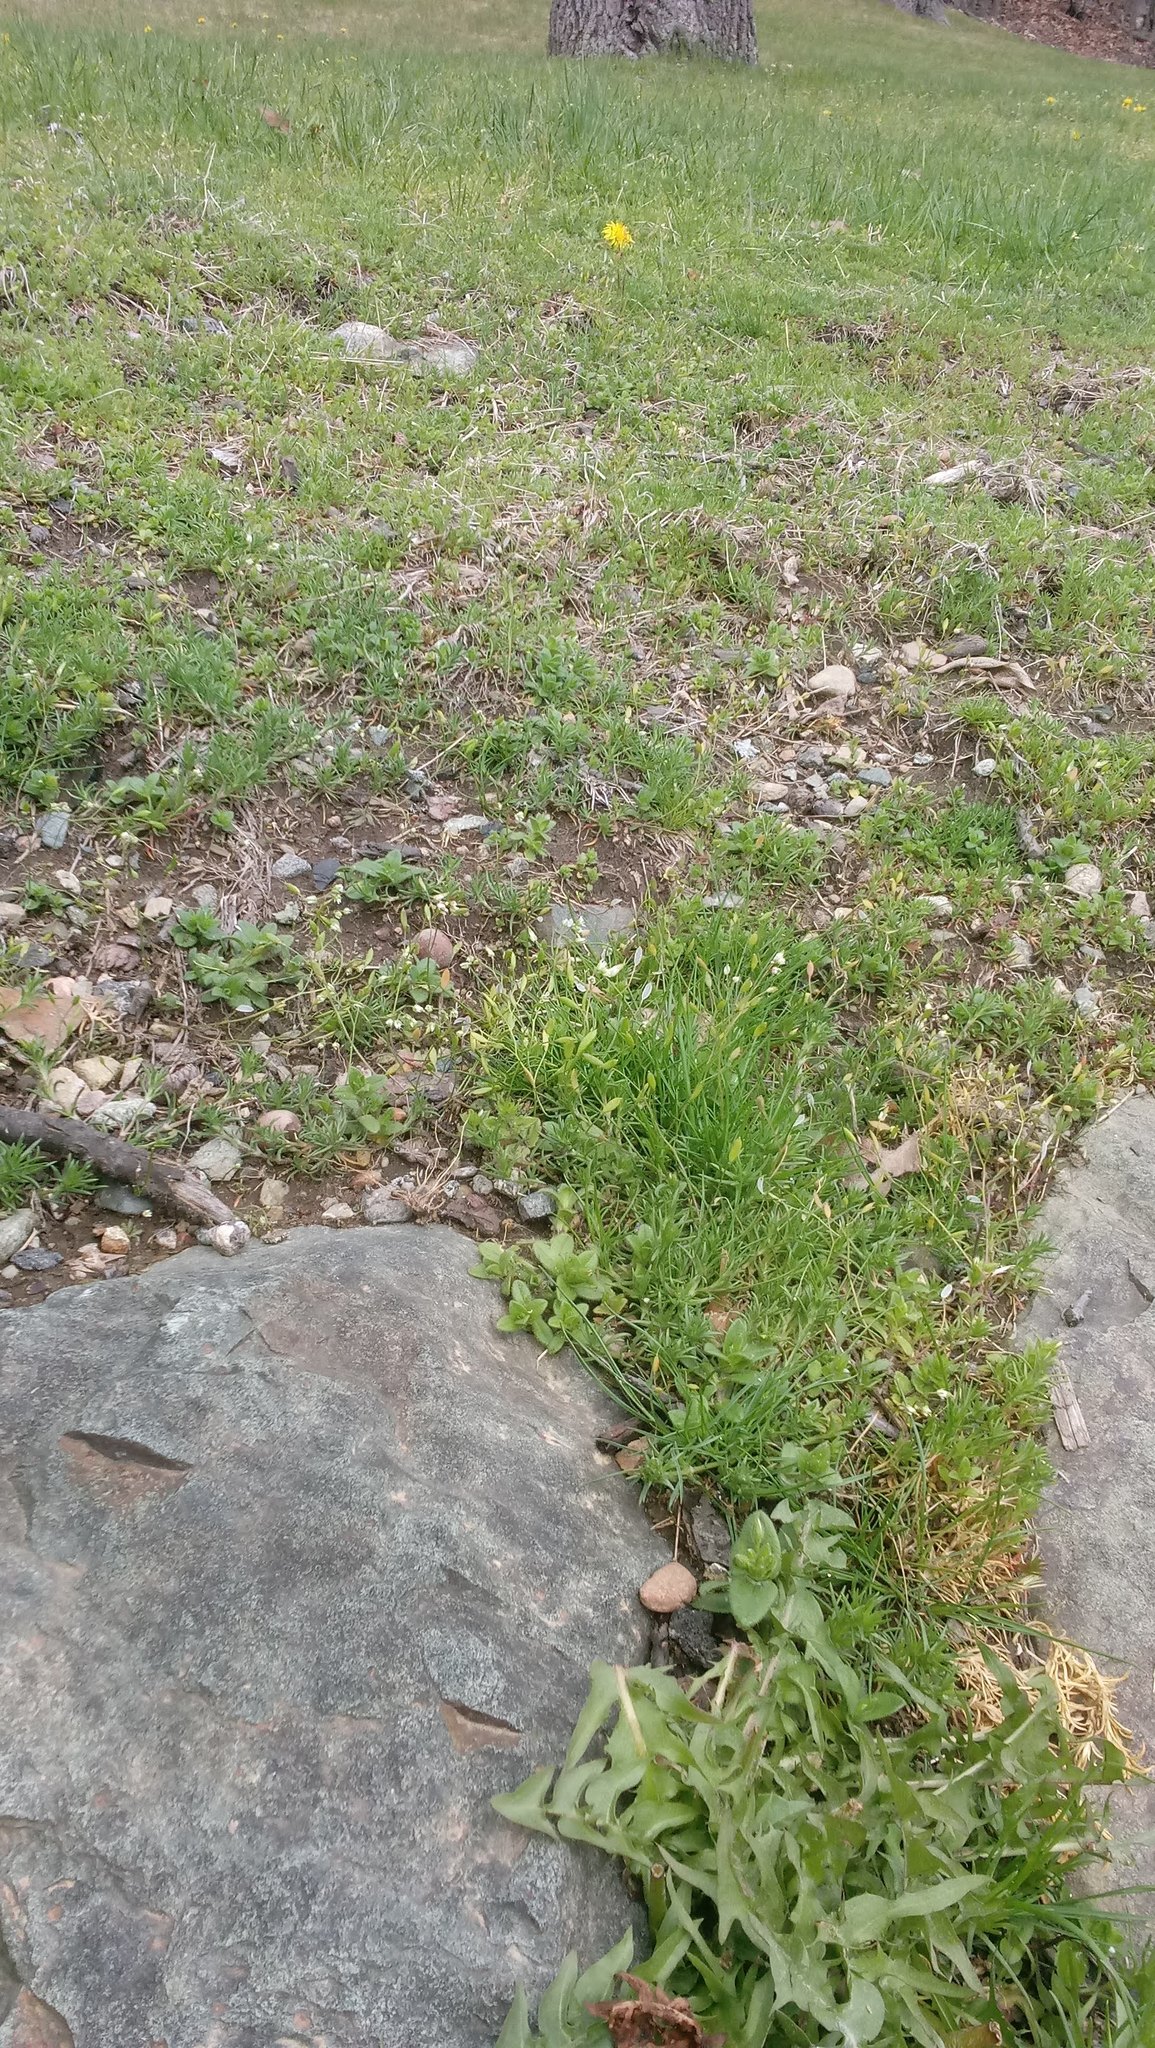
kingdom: Plantae
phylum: Tracheophyta
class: Magnoliopsida
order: Brassicales
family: Brassicaceae
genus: Draba
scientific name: Draba verna
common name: Spring draba
